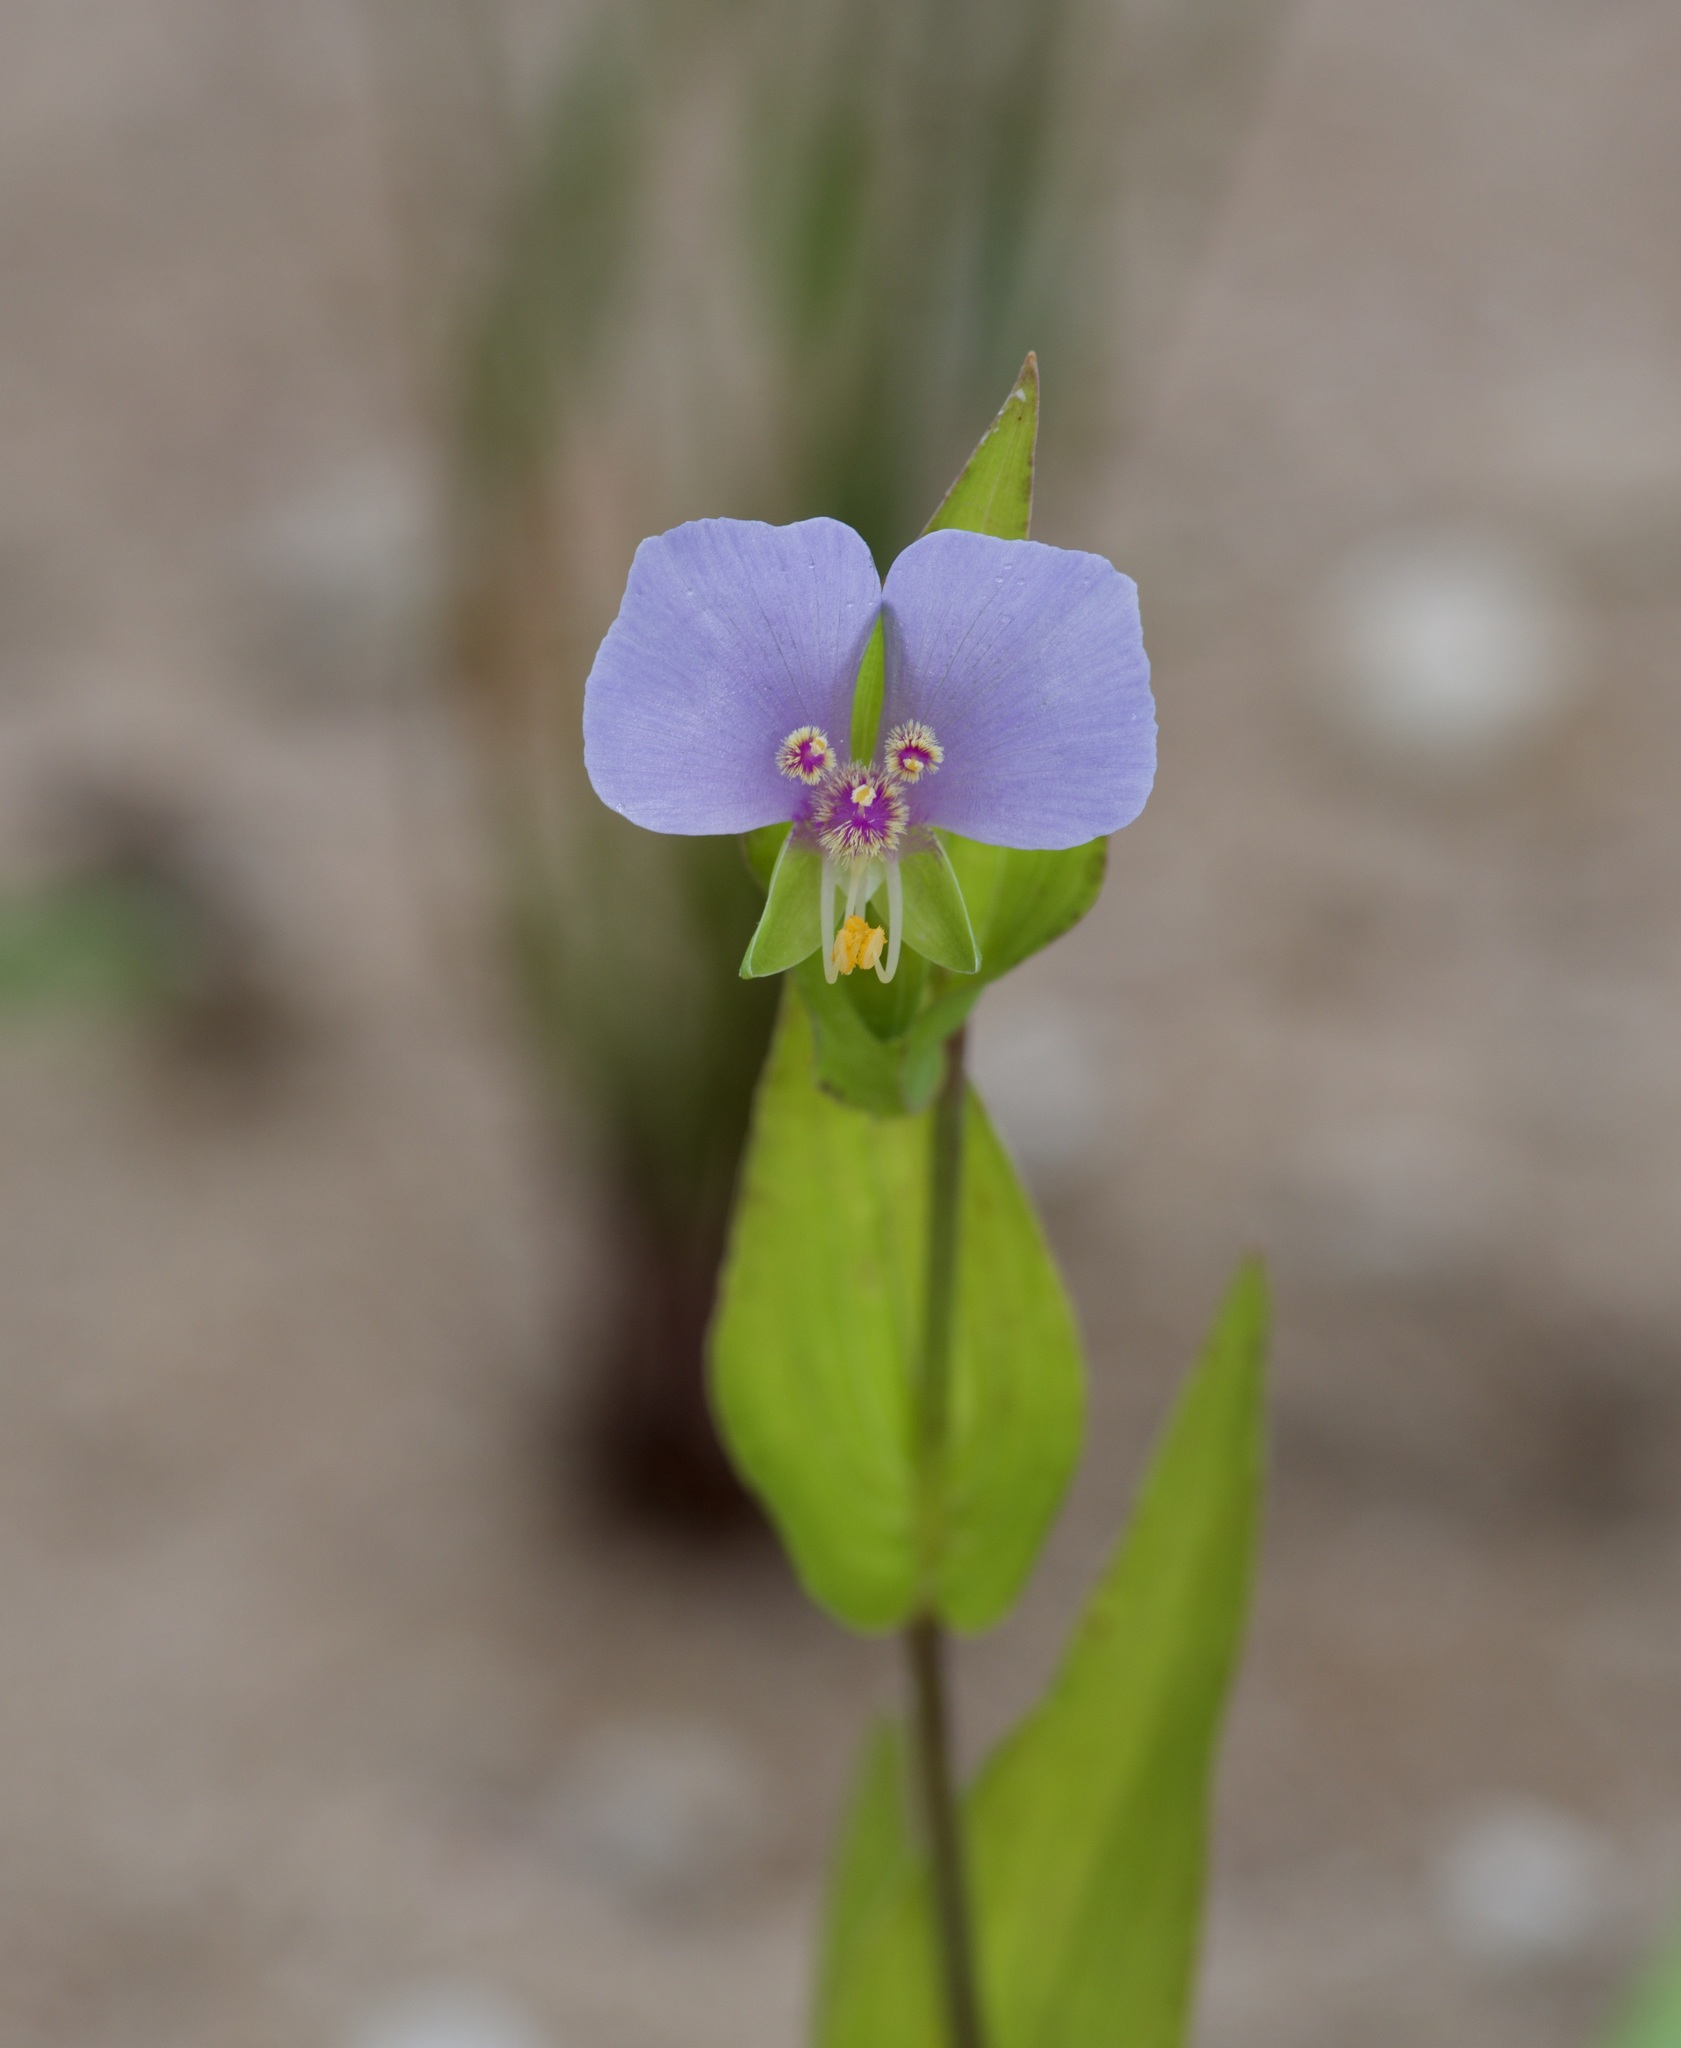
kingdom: Plantae
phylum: Tracheophyta
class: Liliopsida
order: Commelinales
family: Commelinaceae
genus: Tinantia
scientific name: Tinantia anomala
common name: False dayflower
